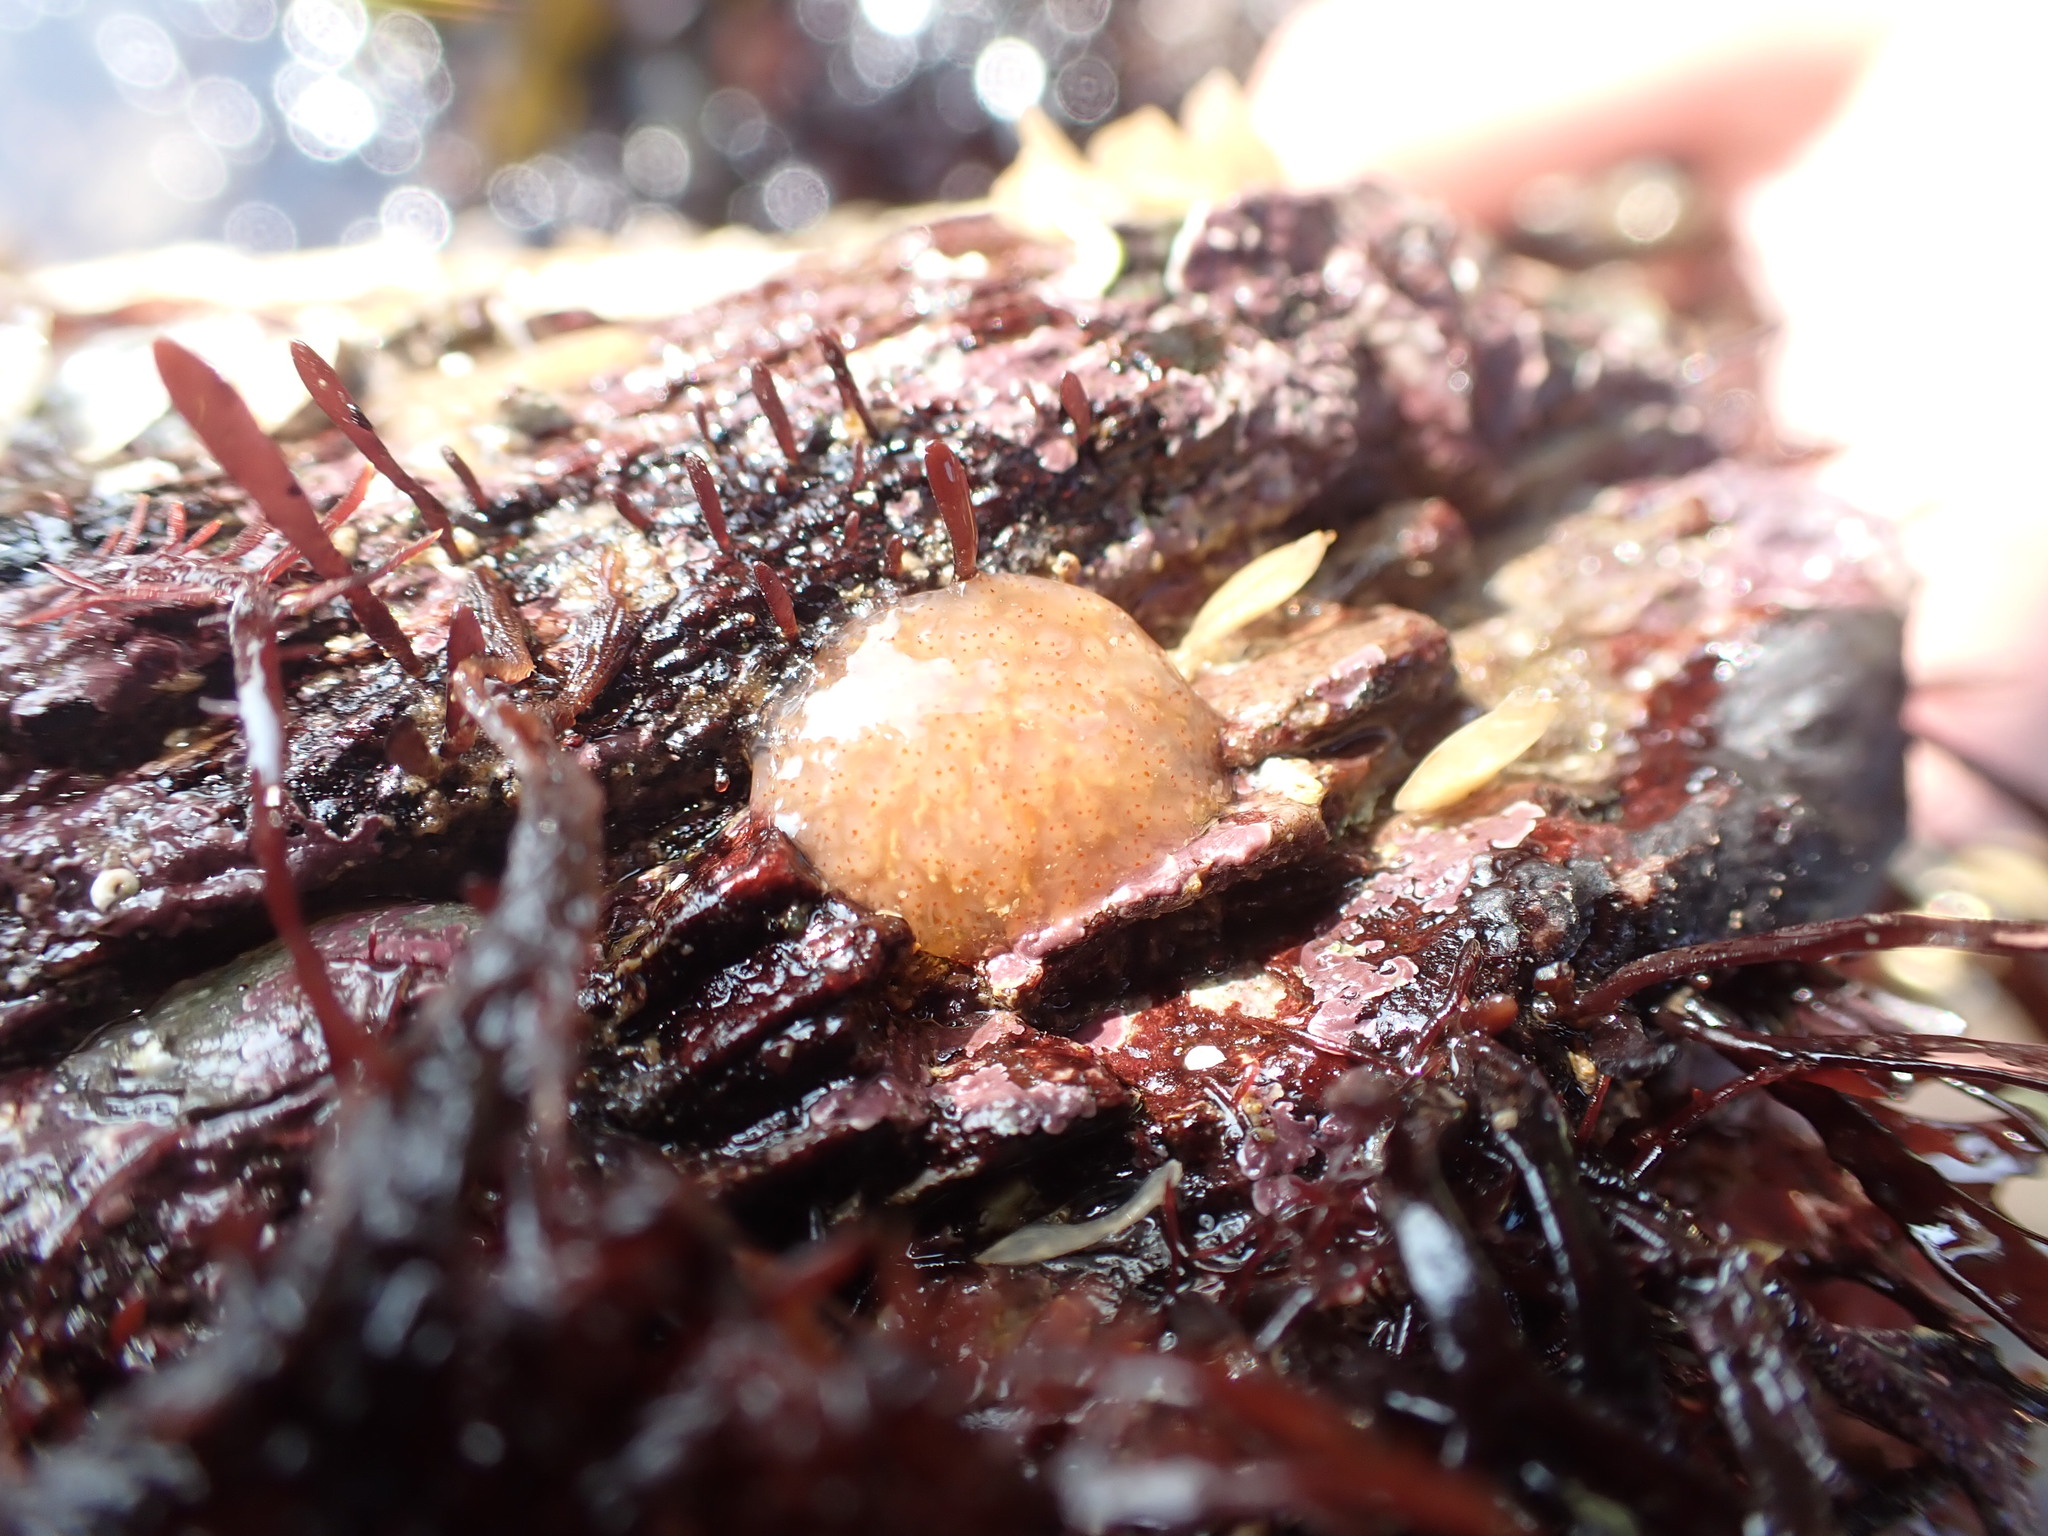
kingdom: Animalia
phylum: Chordata
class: Ascidiacea
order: Aplousobranchia
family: Polyclinidae
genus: Morchellium
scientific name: Morchellium argus
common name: Colonial sesquirt
